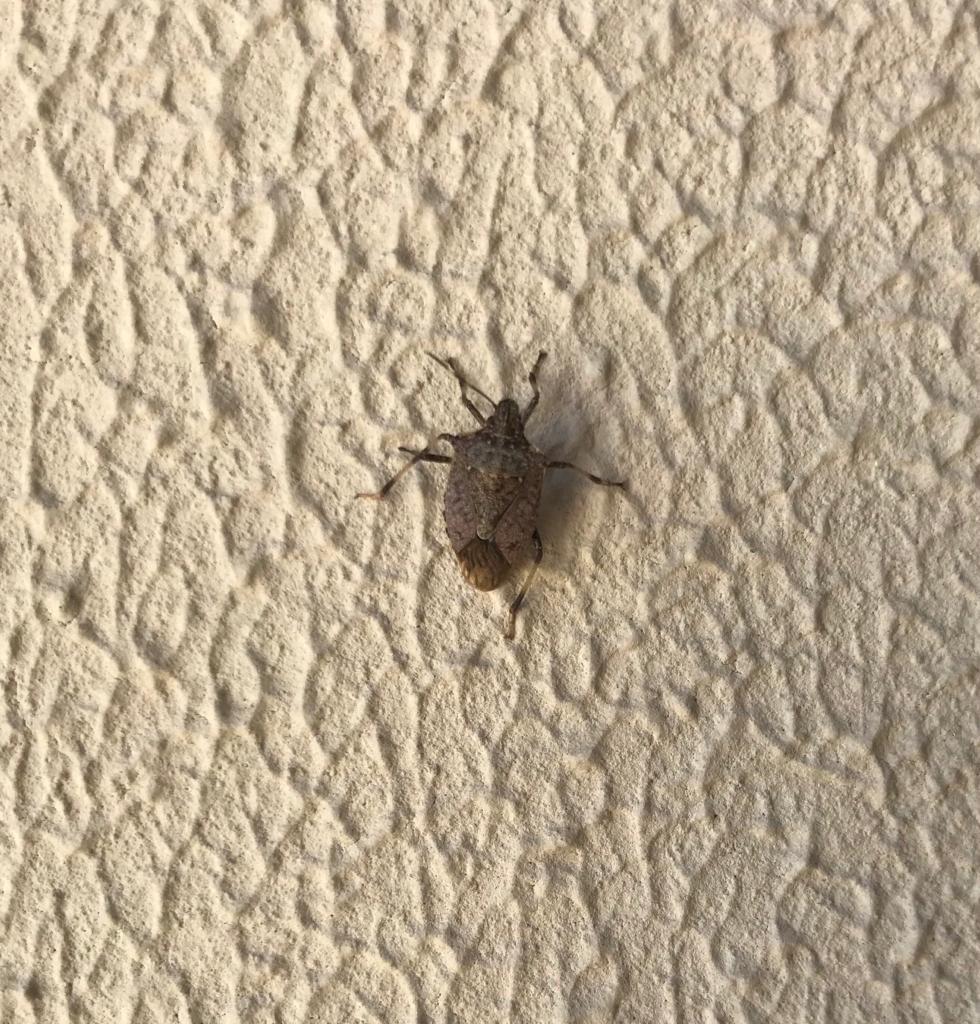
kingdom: Animalia
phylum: Arthropoda
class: Insecta
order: Hemiptera
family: Pentatomidae
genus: Halyomorpha
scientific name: Halyomorpha halys
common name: Brown marmorated stink bug
